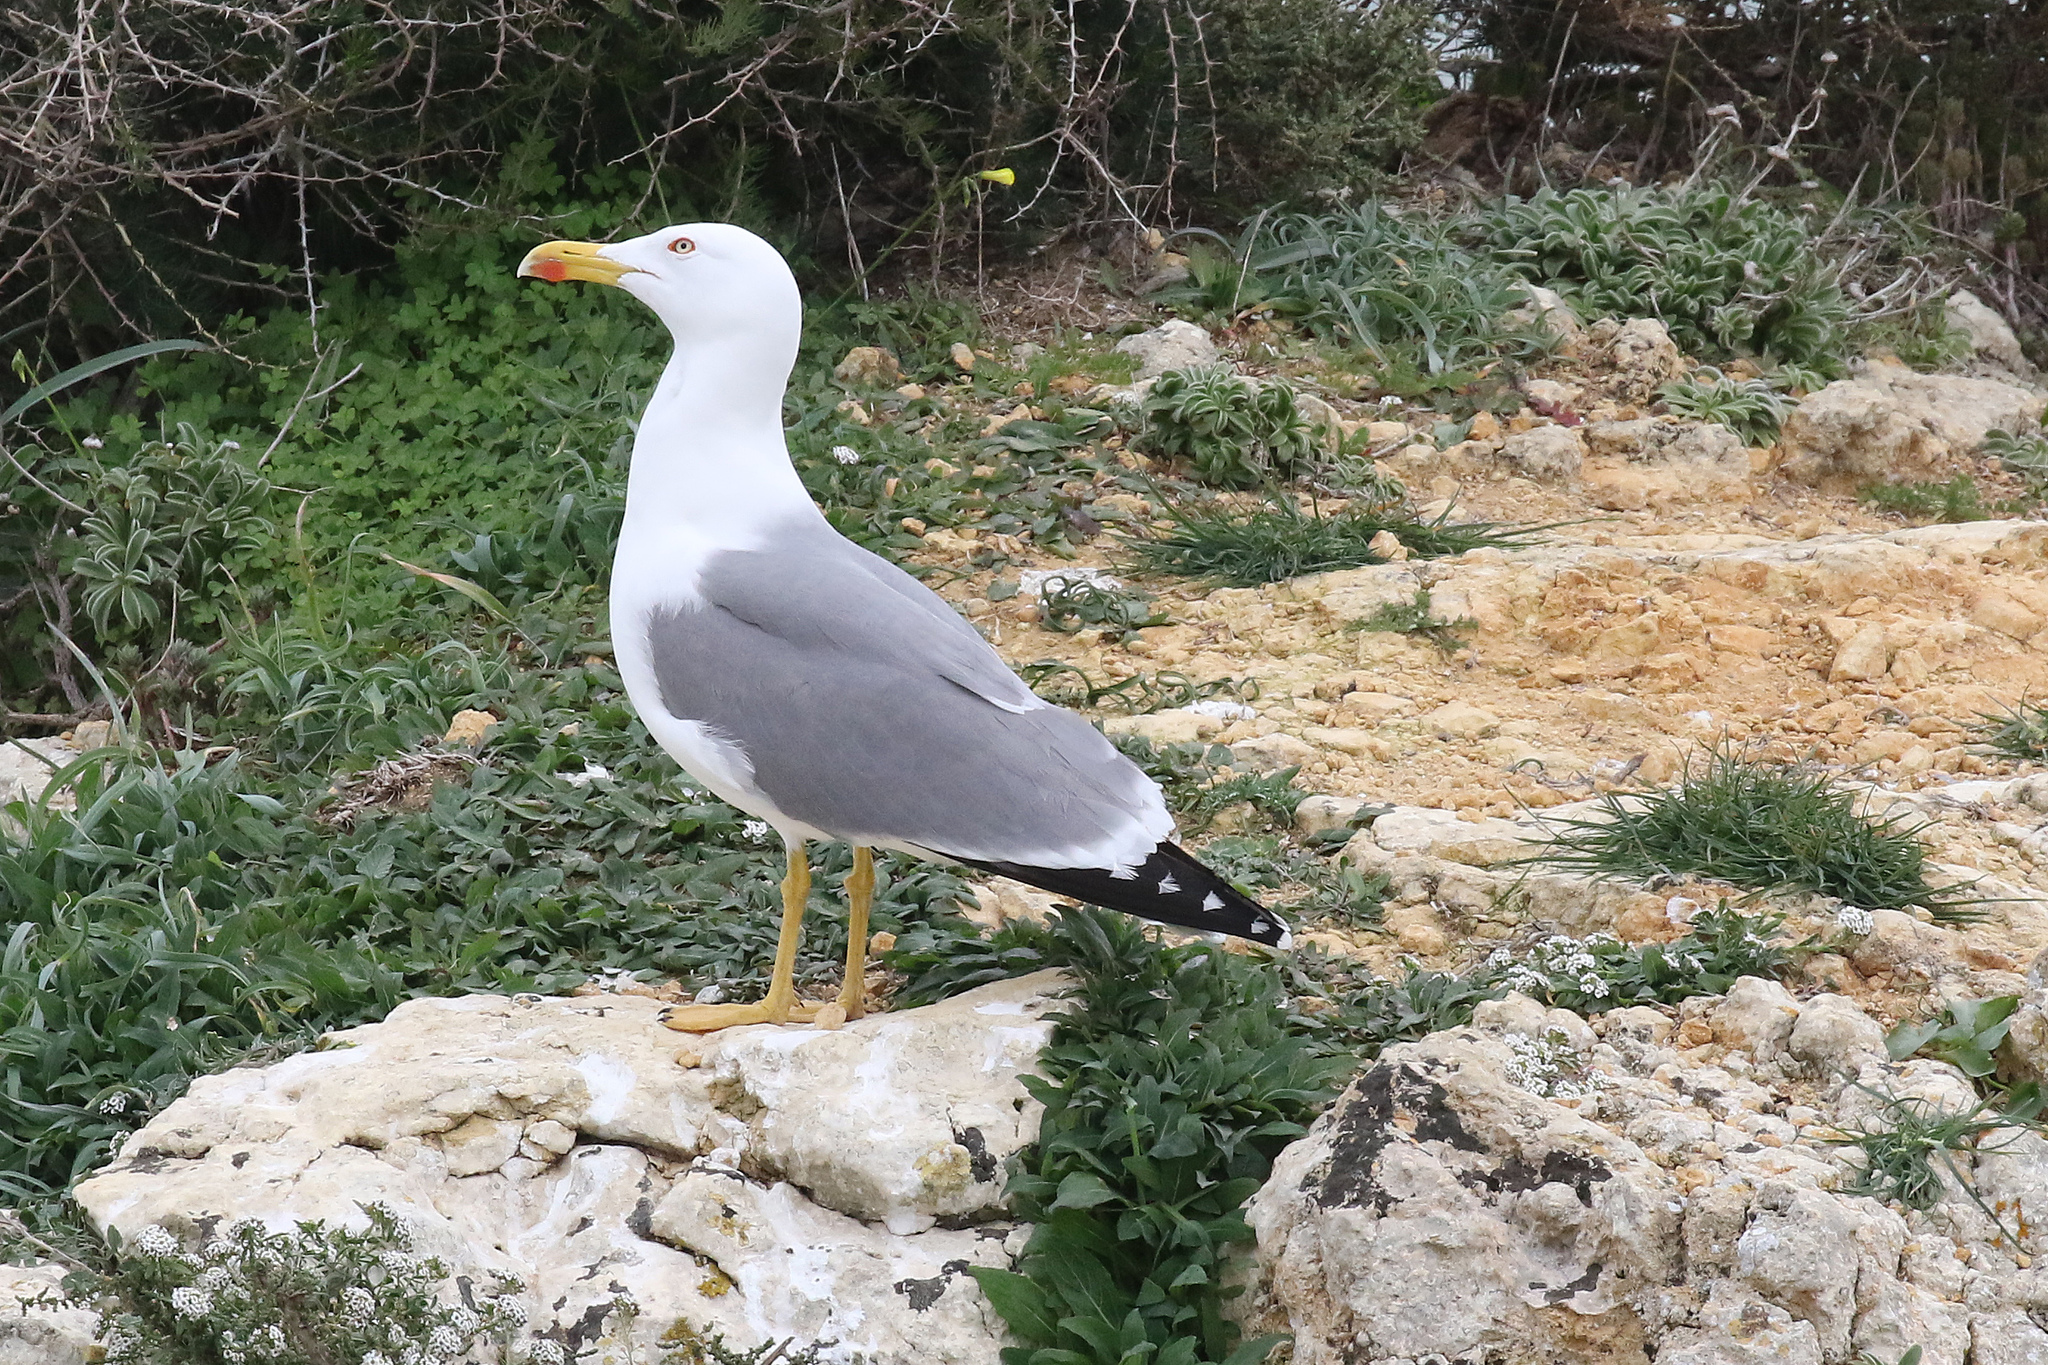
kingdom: Animalia
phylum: Chordata
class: Aves
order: Charadriiformes
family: Laridae
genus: Larus
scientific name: Larus michahellis
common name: Yellow-legged gull
